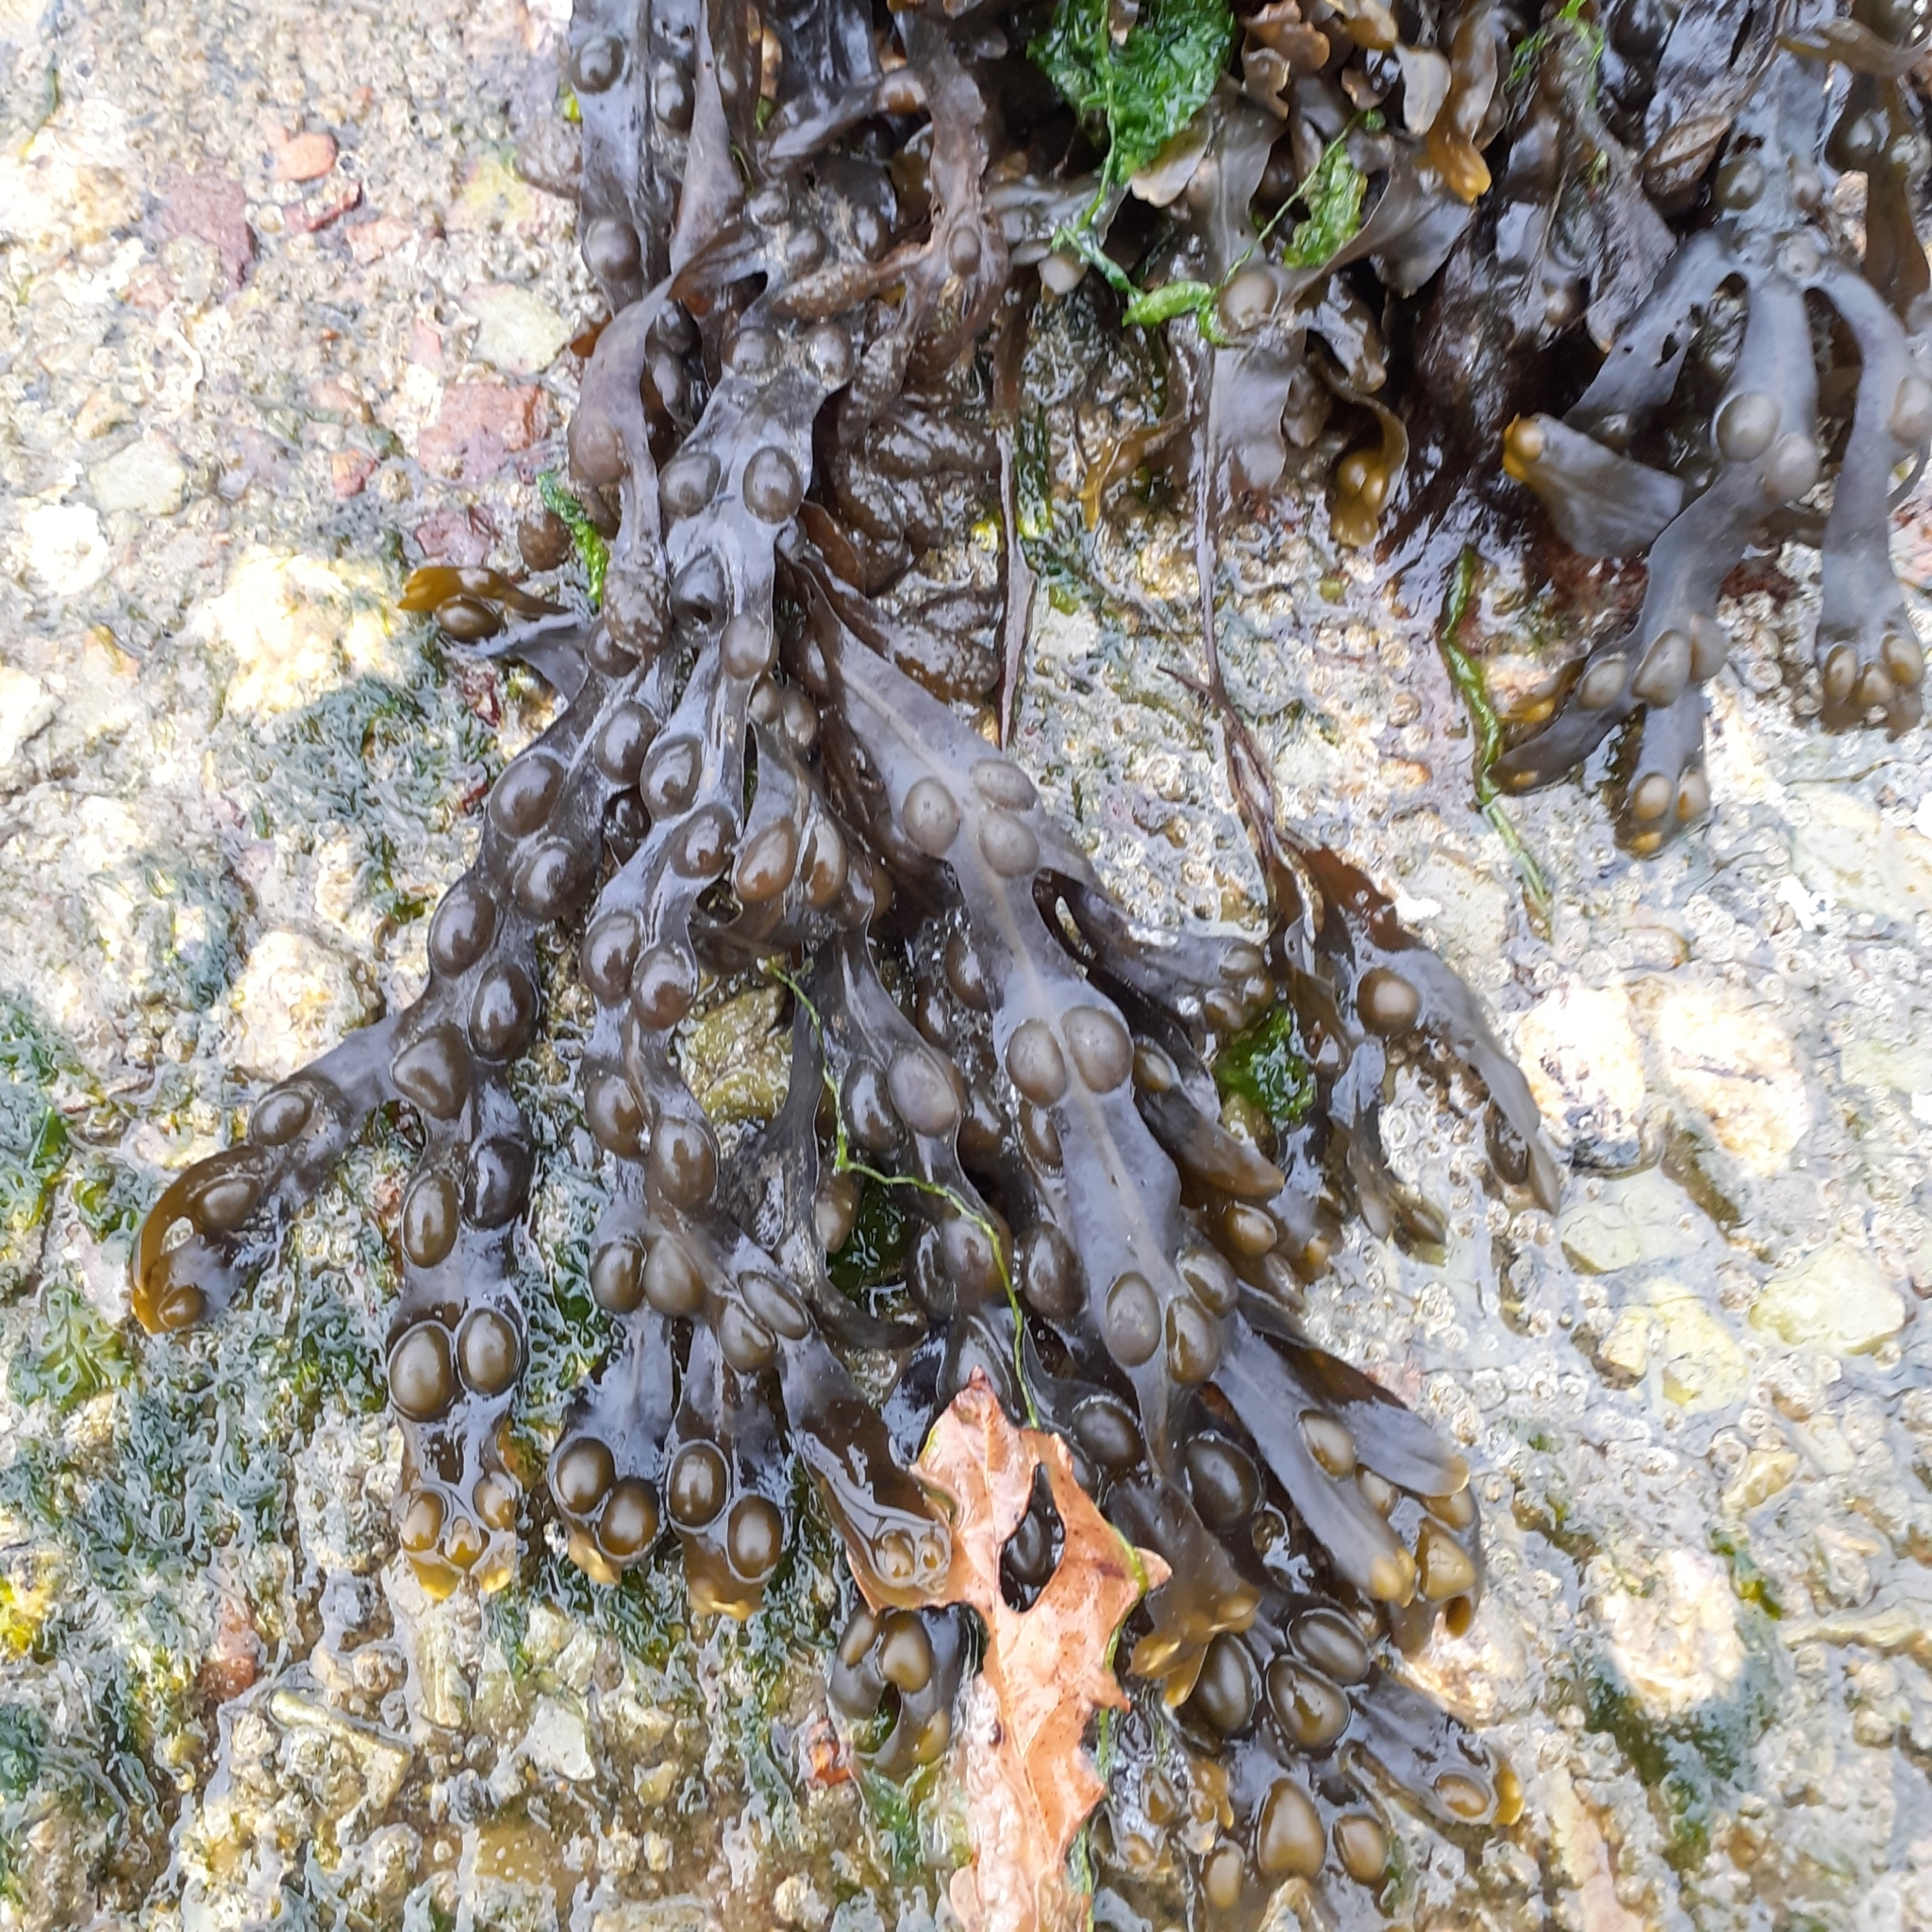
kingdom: Chromista
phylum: Ochrophyta
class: Phaeophyceae
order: Fucales
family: Fucaceae
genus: Fucus
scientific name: Fucus vesiculosus
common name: Bladder wrack
